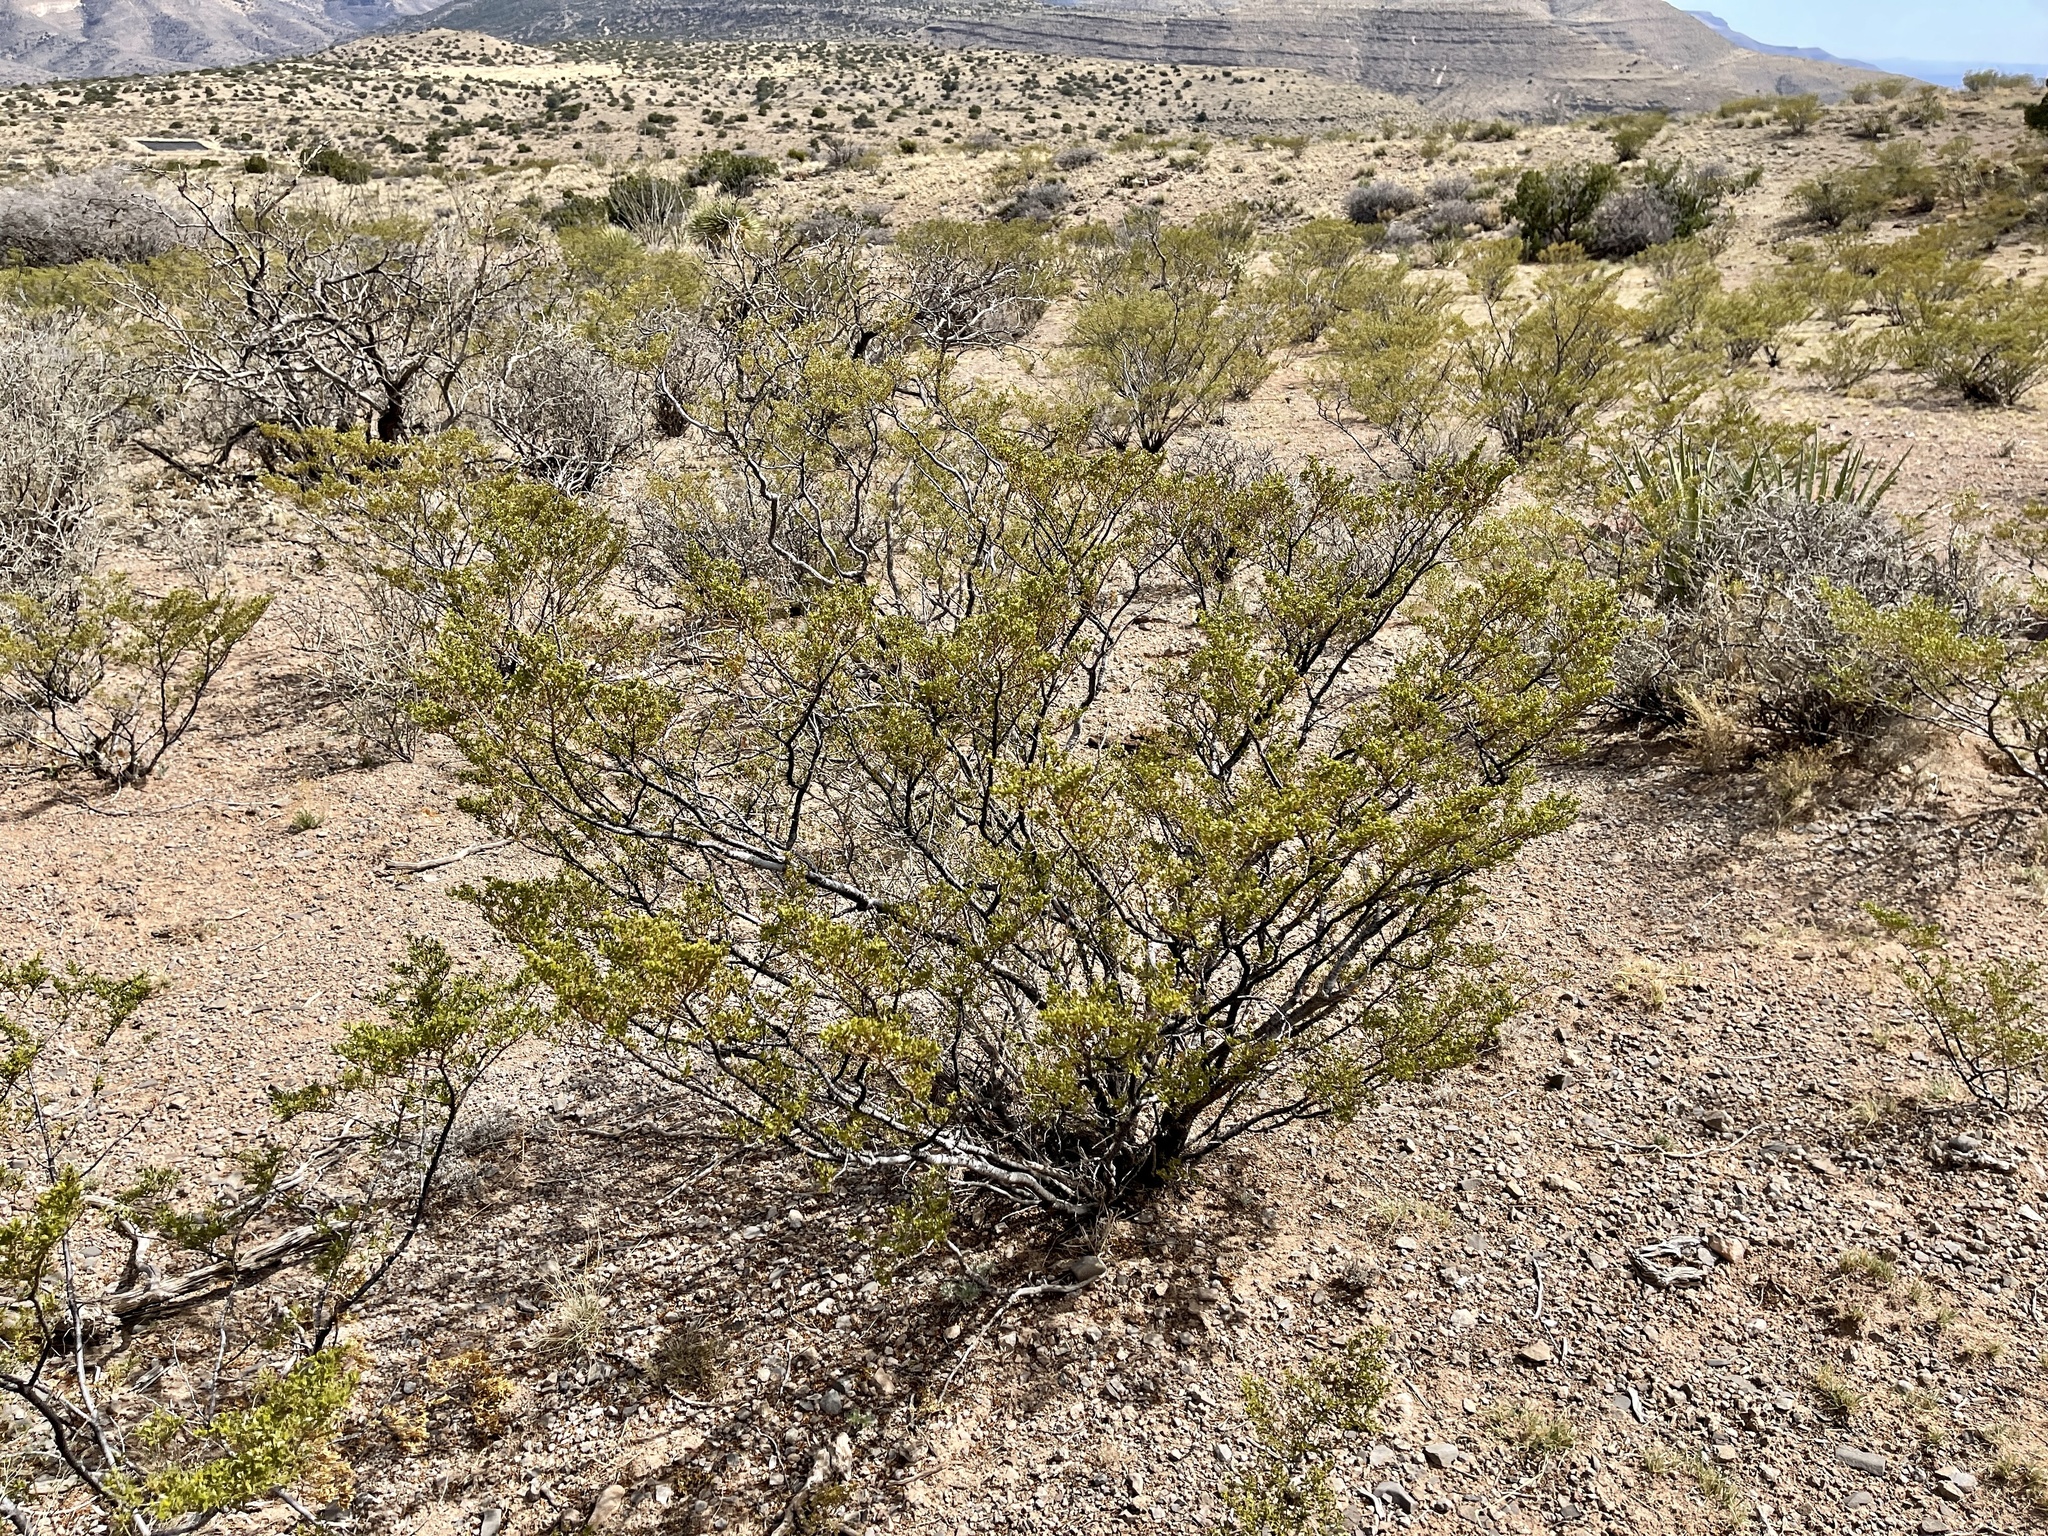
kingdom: Plantae
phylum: Tracheophyta
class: Magnoliopsida
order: Zygophyllales
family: Zygophyllaceae
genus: Larrea
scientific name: Larrea tridentata
